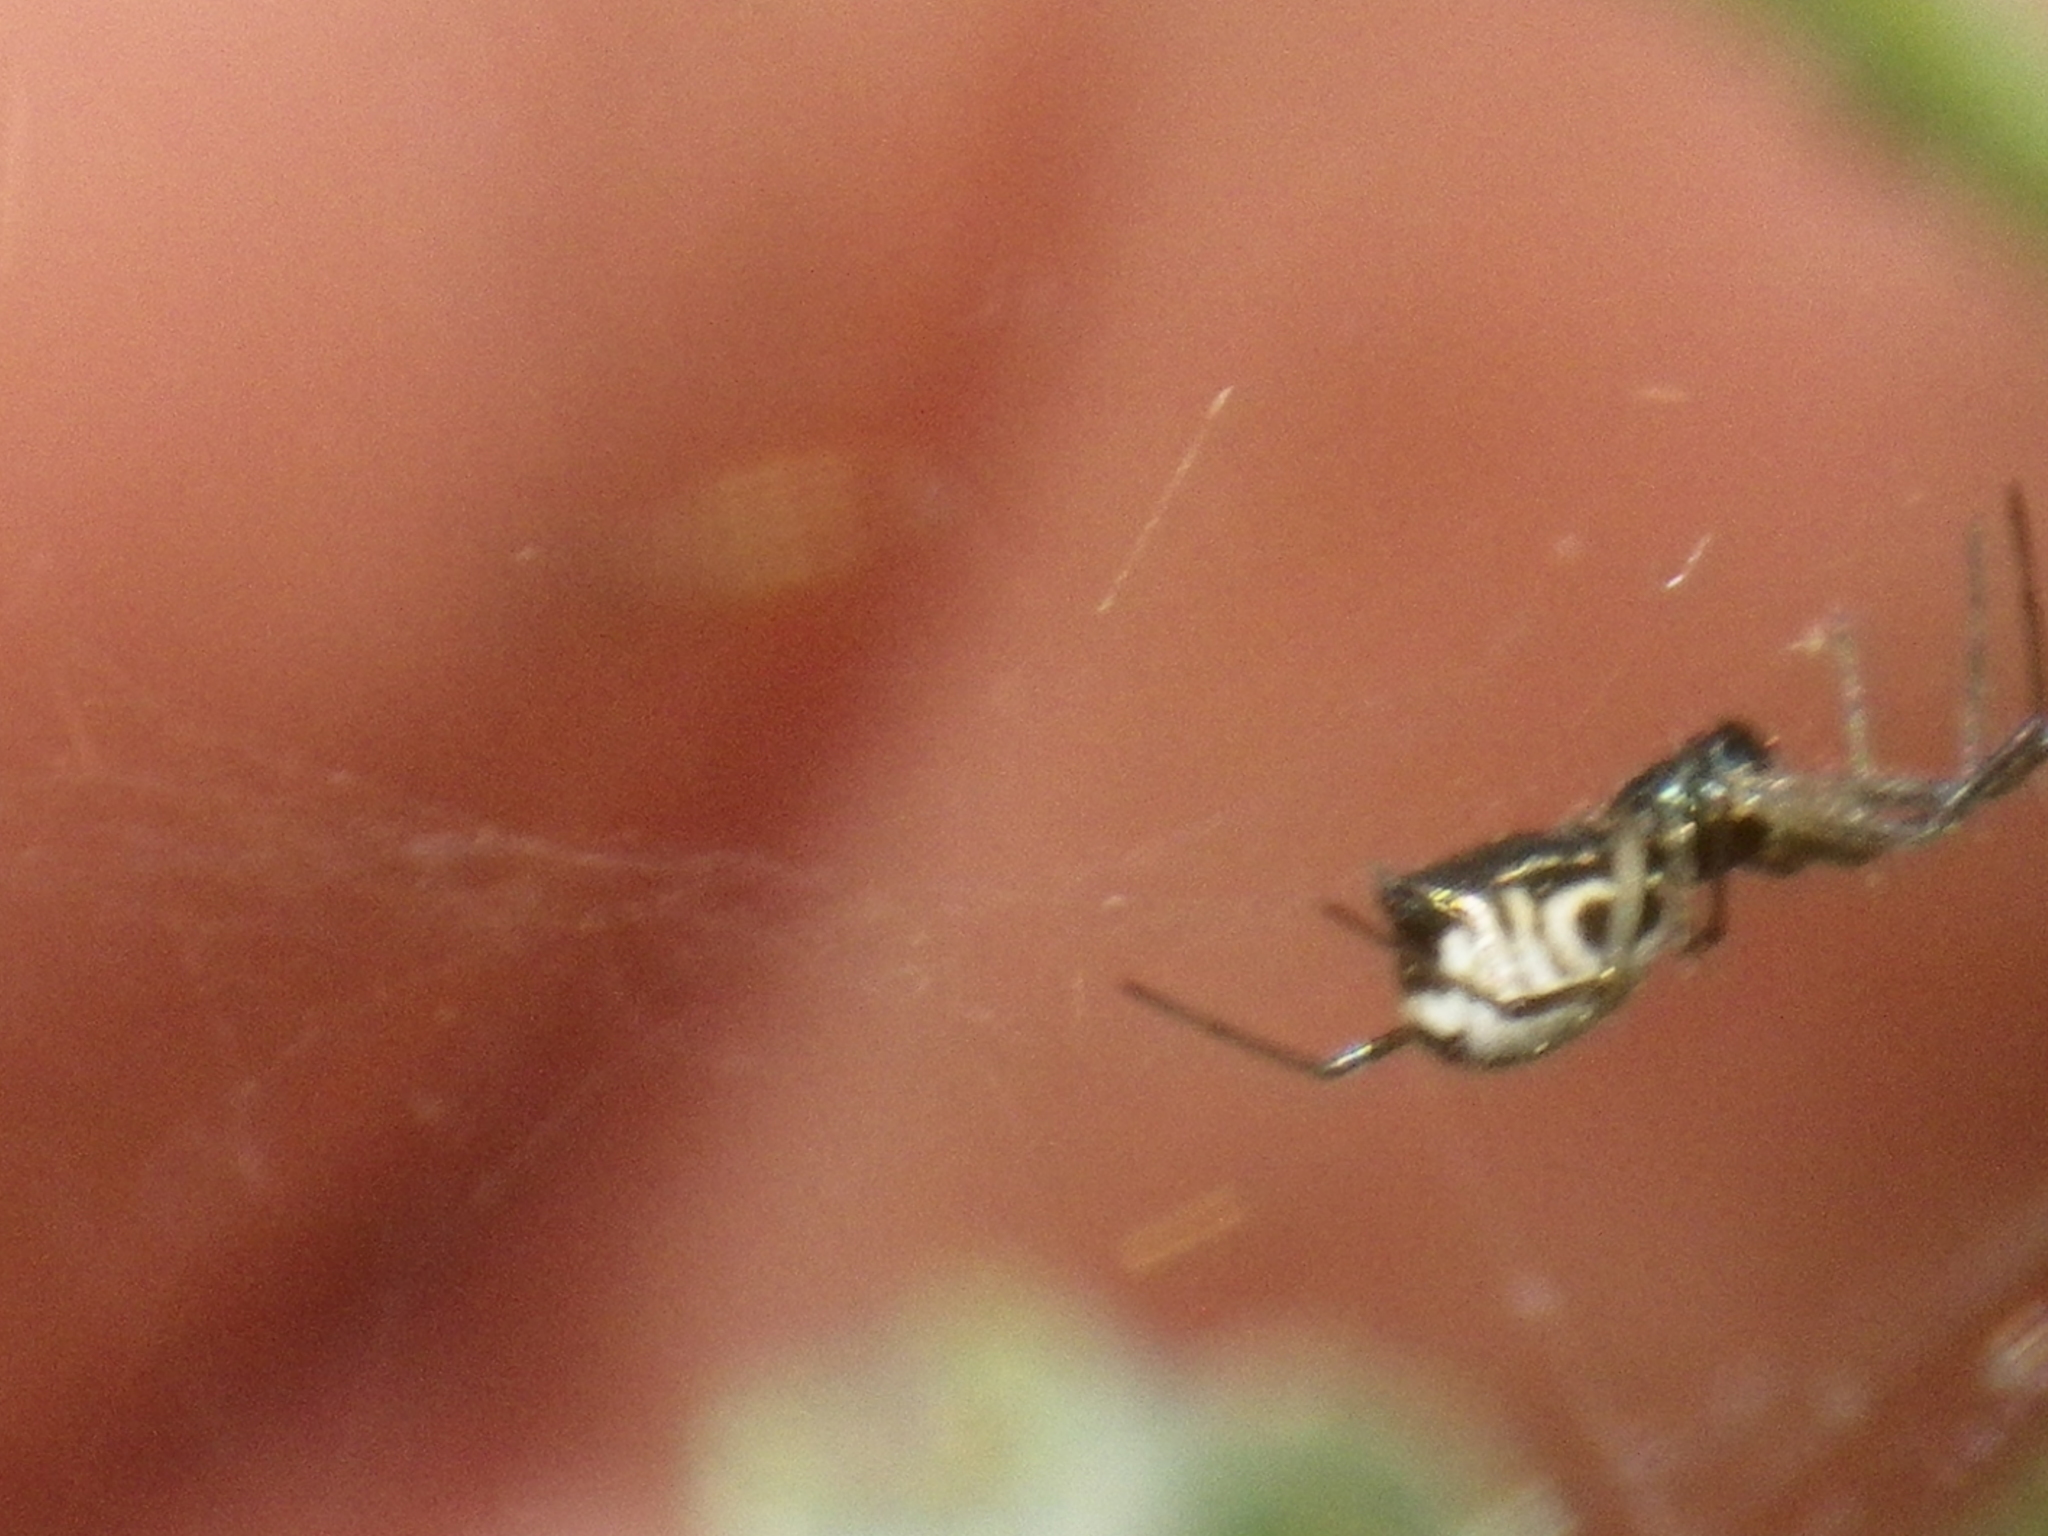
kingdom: Animalia
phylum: Arthropoda
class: Arachnida
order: Araneae
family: Linyphiidae
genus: Frontinella
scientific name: Frontinella pyramitela
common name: Bowl-and-doily spider
